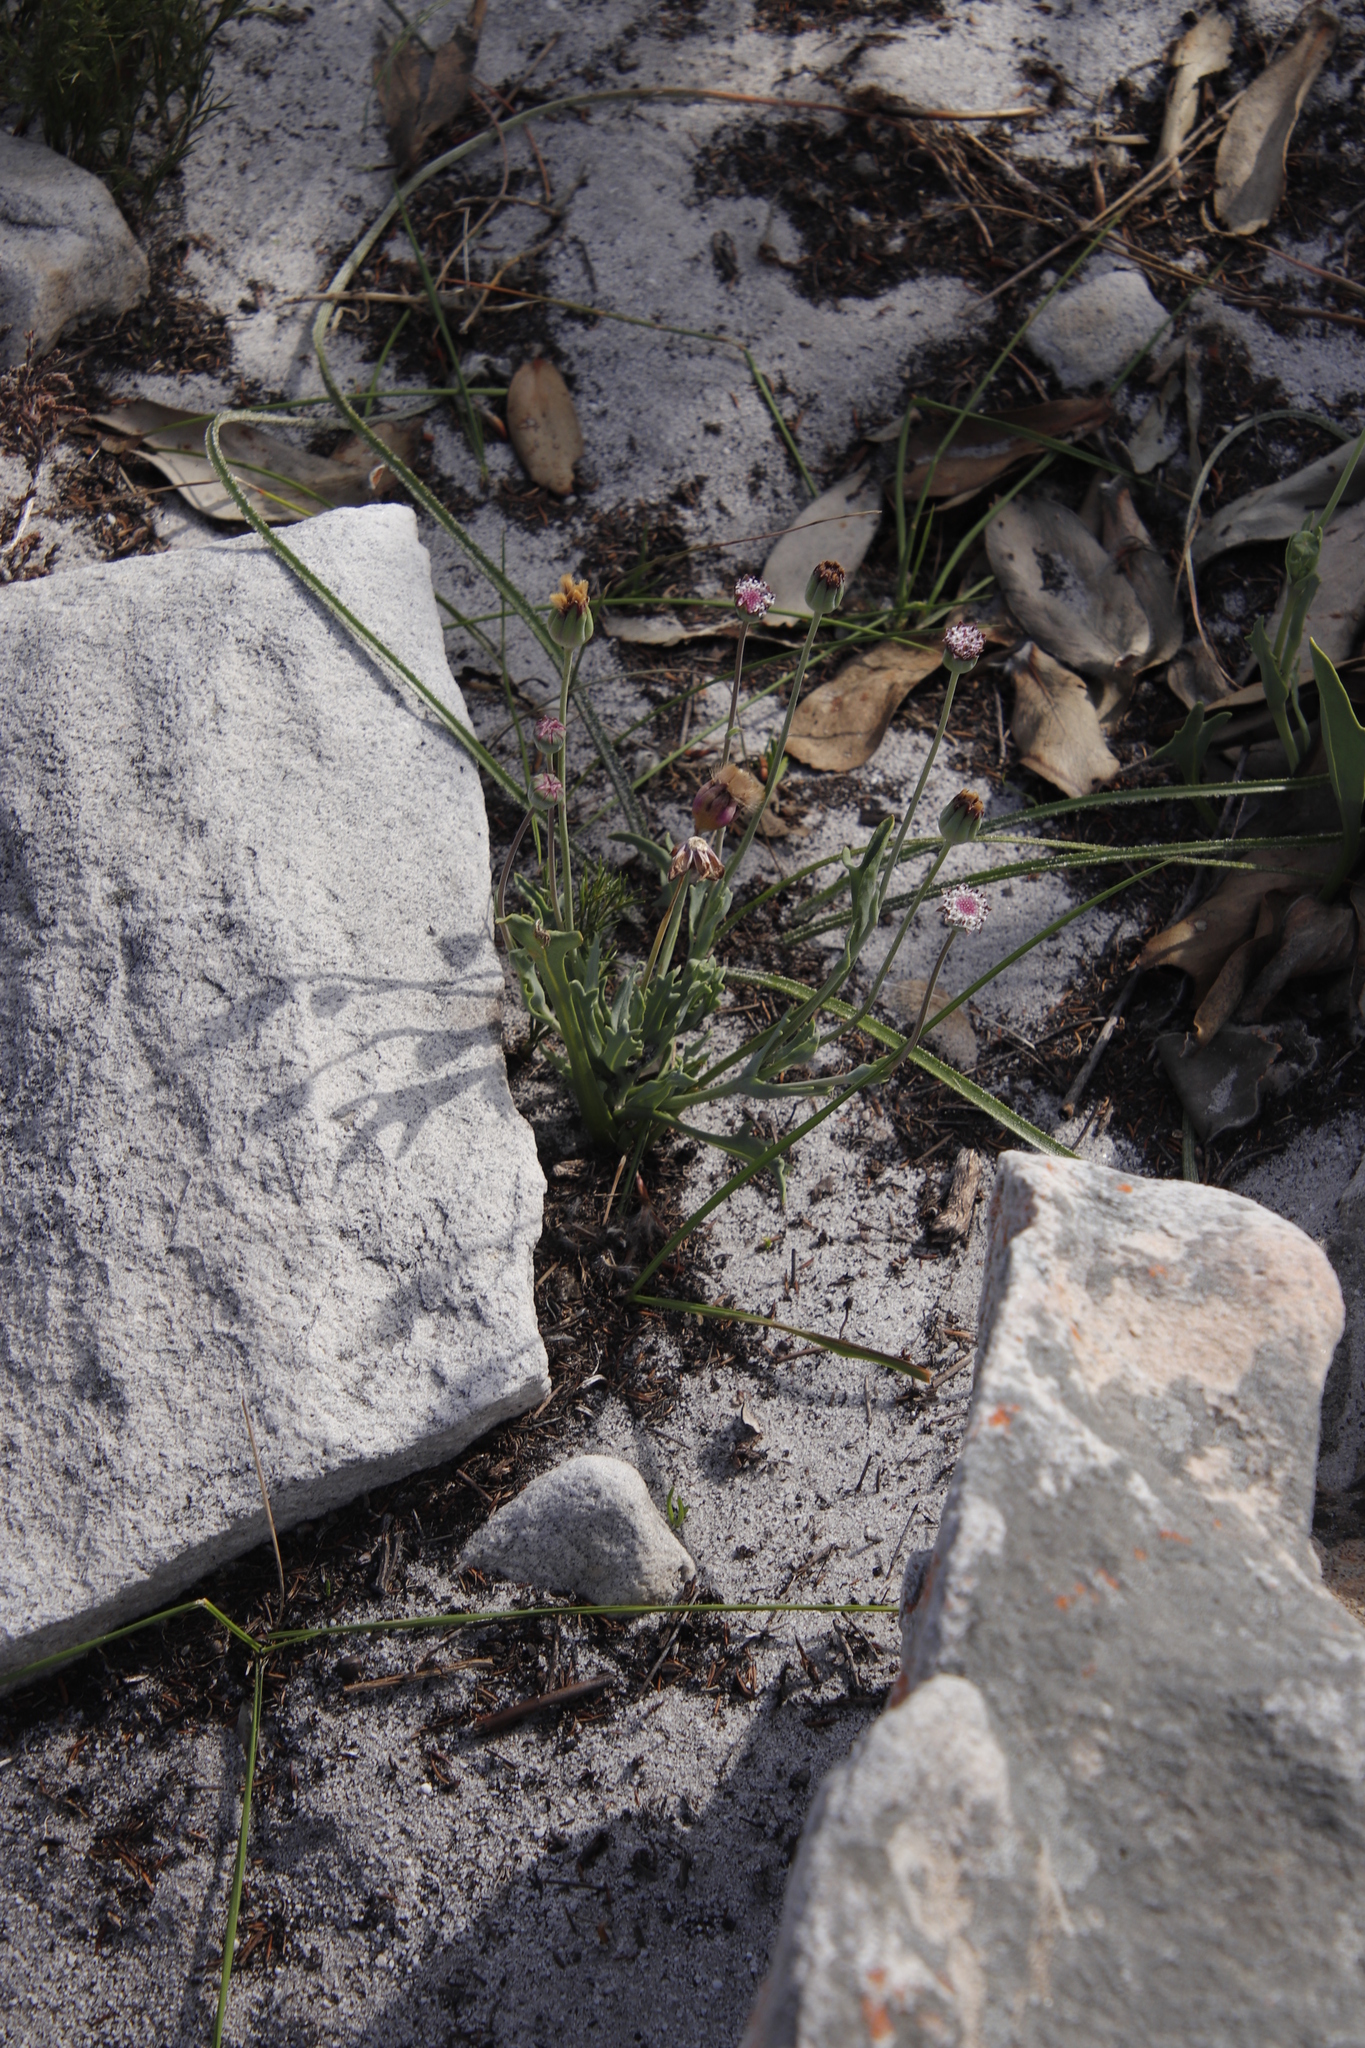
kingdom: Plantae
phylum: Tracheophyta
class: Magnoliopsida
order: Asterales
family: Asteraceae
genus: Othonna
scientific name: Othonna digitata
